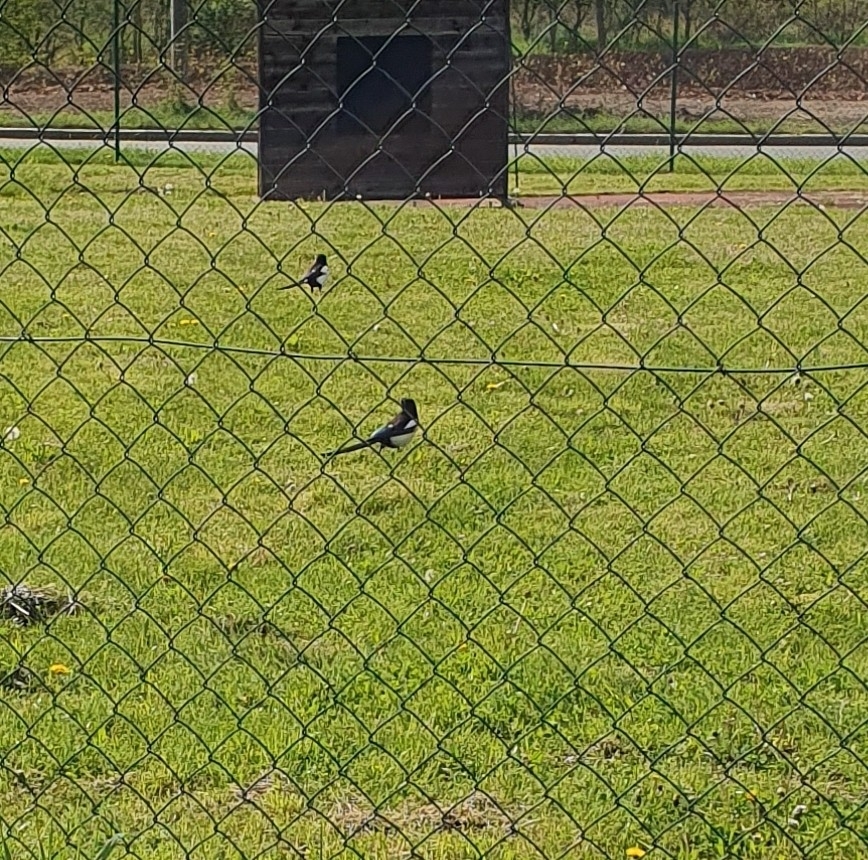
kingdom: Animalia
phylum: Chordata
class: Aves
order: Passeriformes
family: Corvidae
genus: Pica
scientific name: Pica pica
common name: Eurasian magpie
